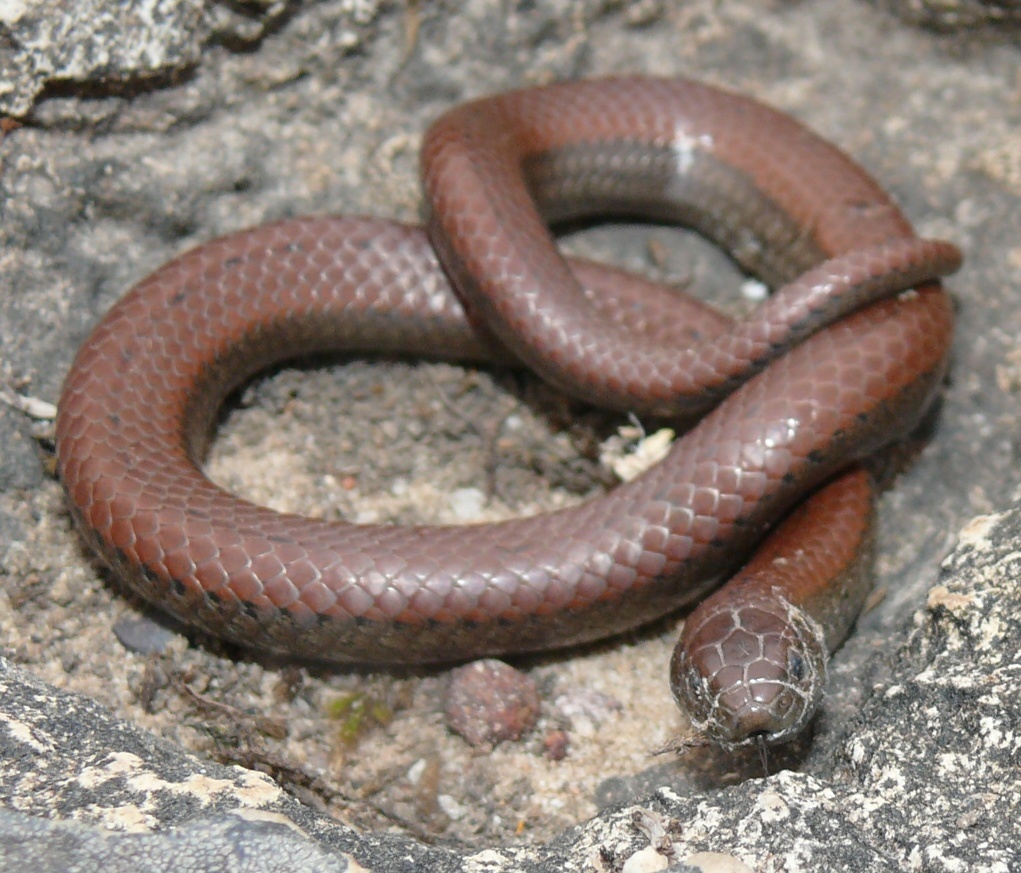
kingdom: Animalia
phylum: Chordata
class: Squamata
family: Pseudoxyrhophiidae
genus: Duberria
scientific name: Duberria lutrix
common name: Common slug eater
